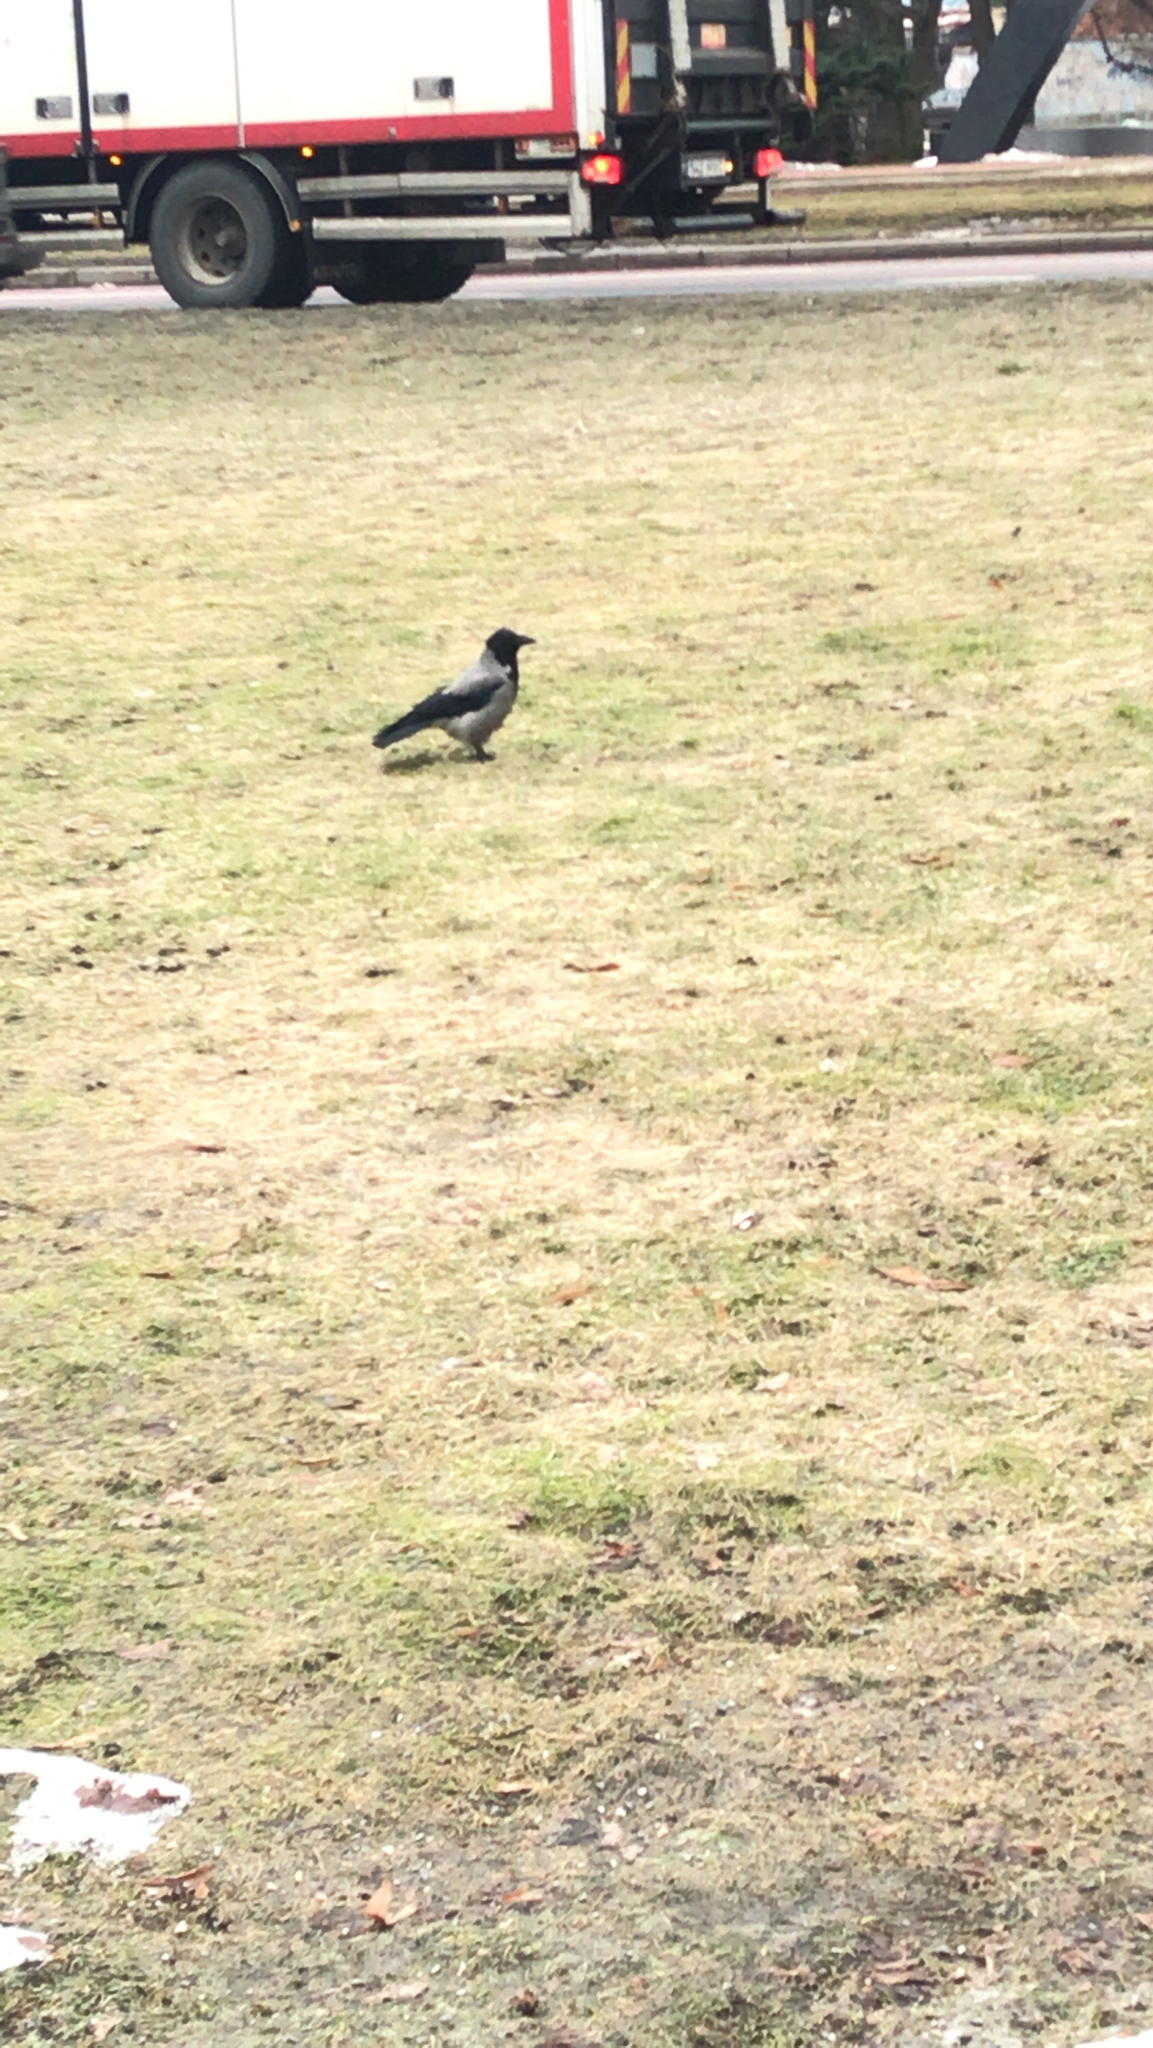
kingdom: Animalia
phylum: Chordata
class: Aves
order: Passeriformes
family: Corvidae
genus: Corvus
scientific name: Corvus cornix
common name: Hooded crow
